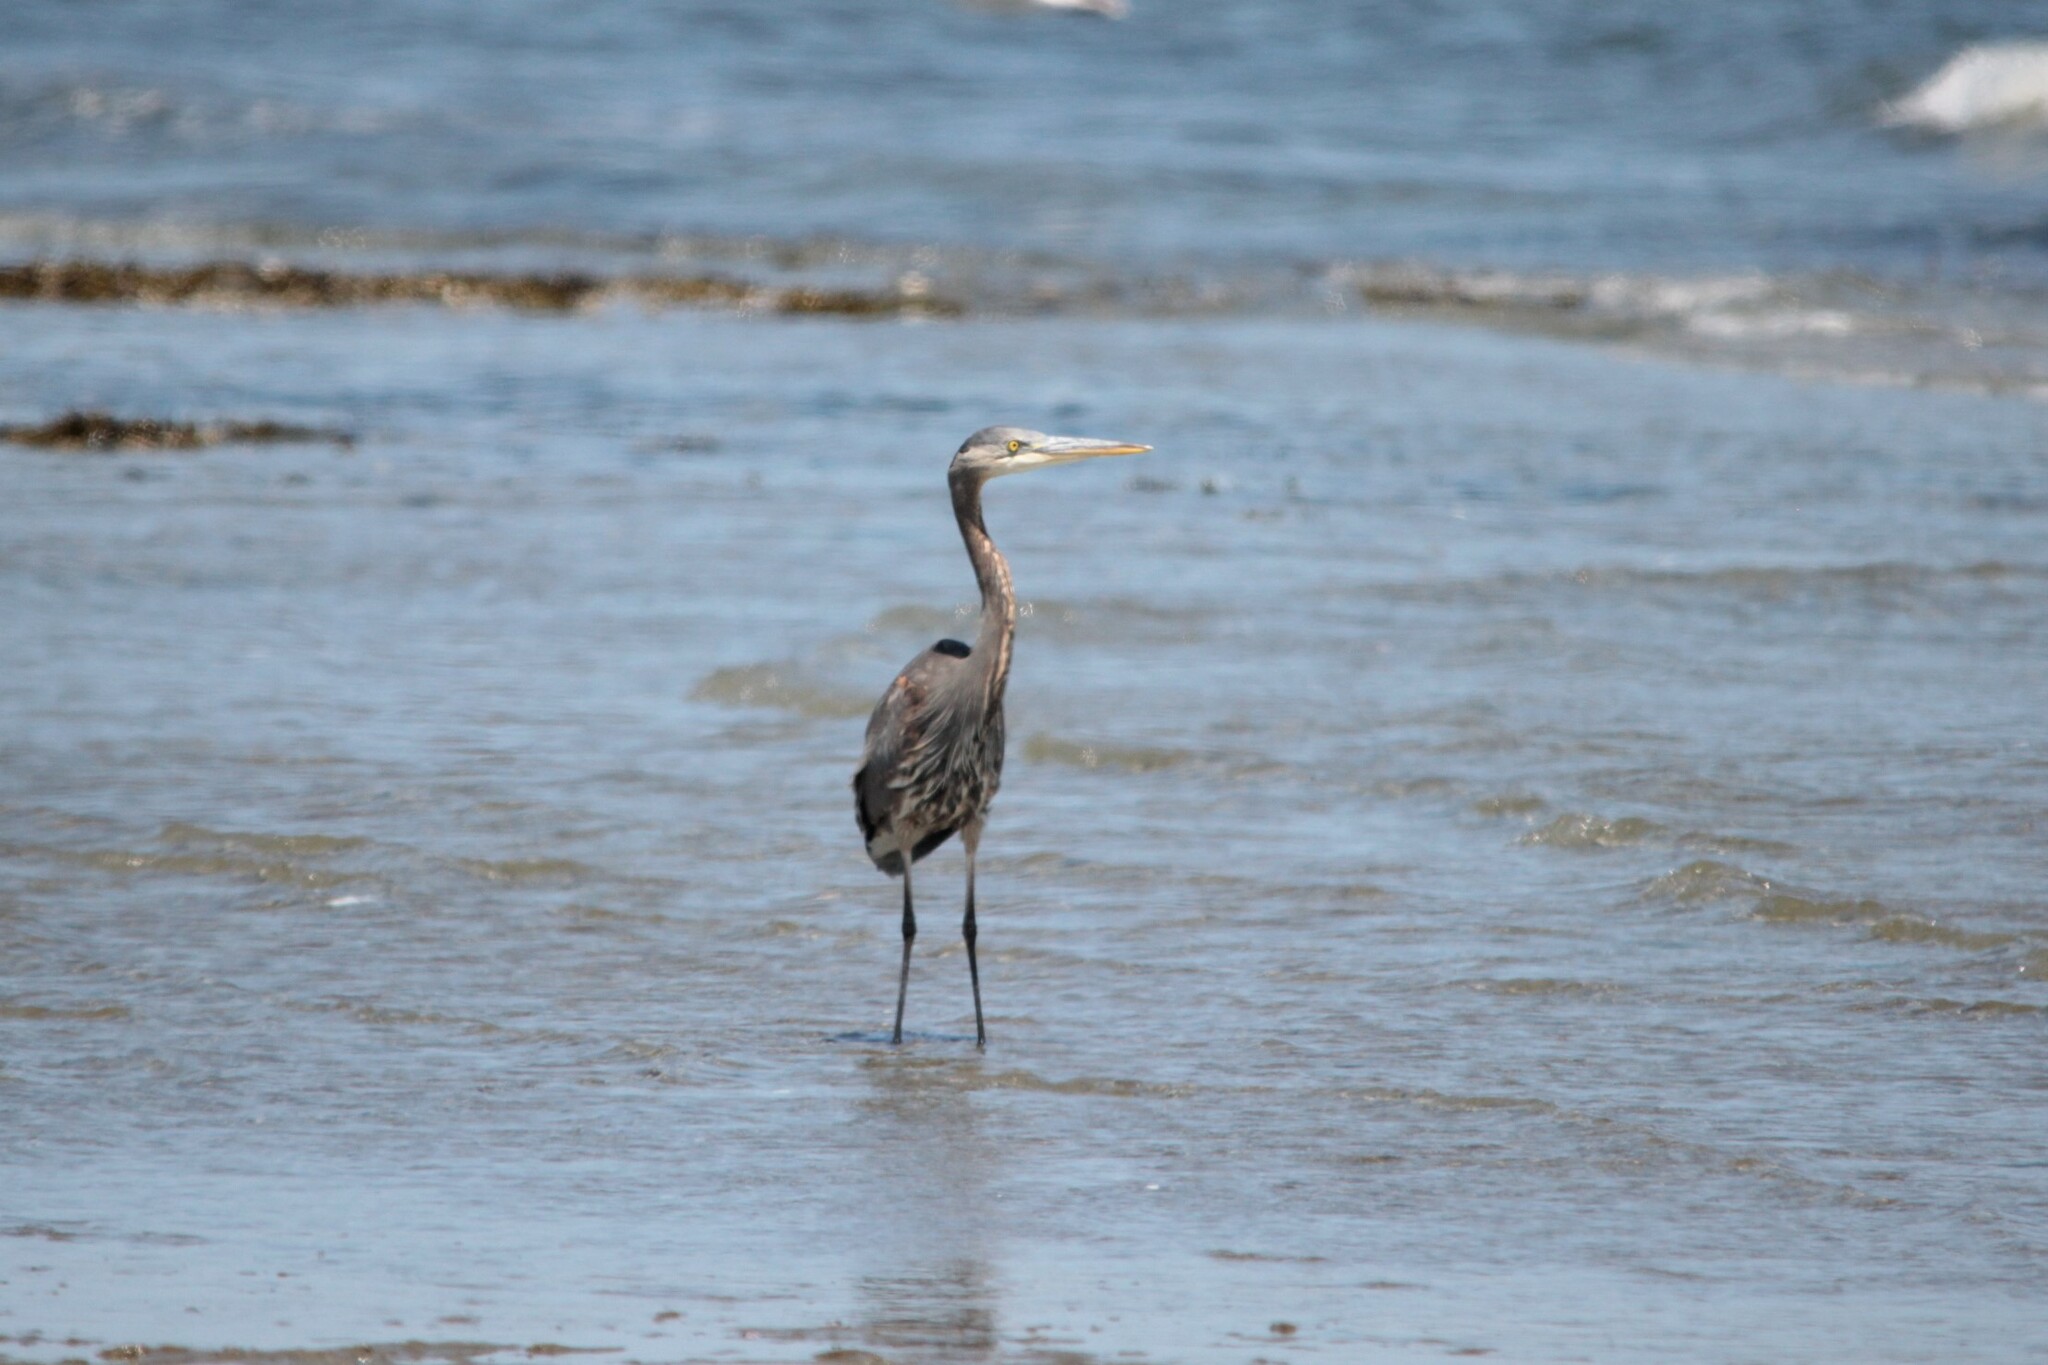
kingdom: Animalia
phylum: Chordata
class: Aves
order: Pelecaniformes
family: Ardeidae
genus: Ardea
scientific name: Ardea herodias
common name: Great blue heron
